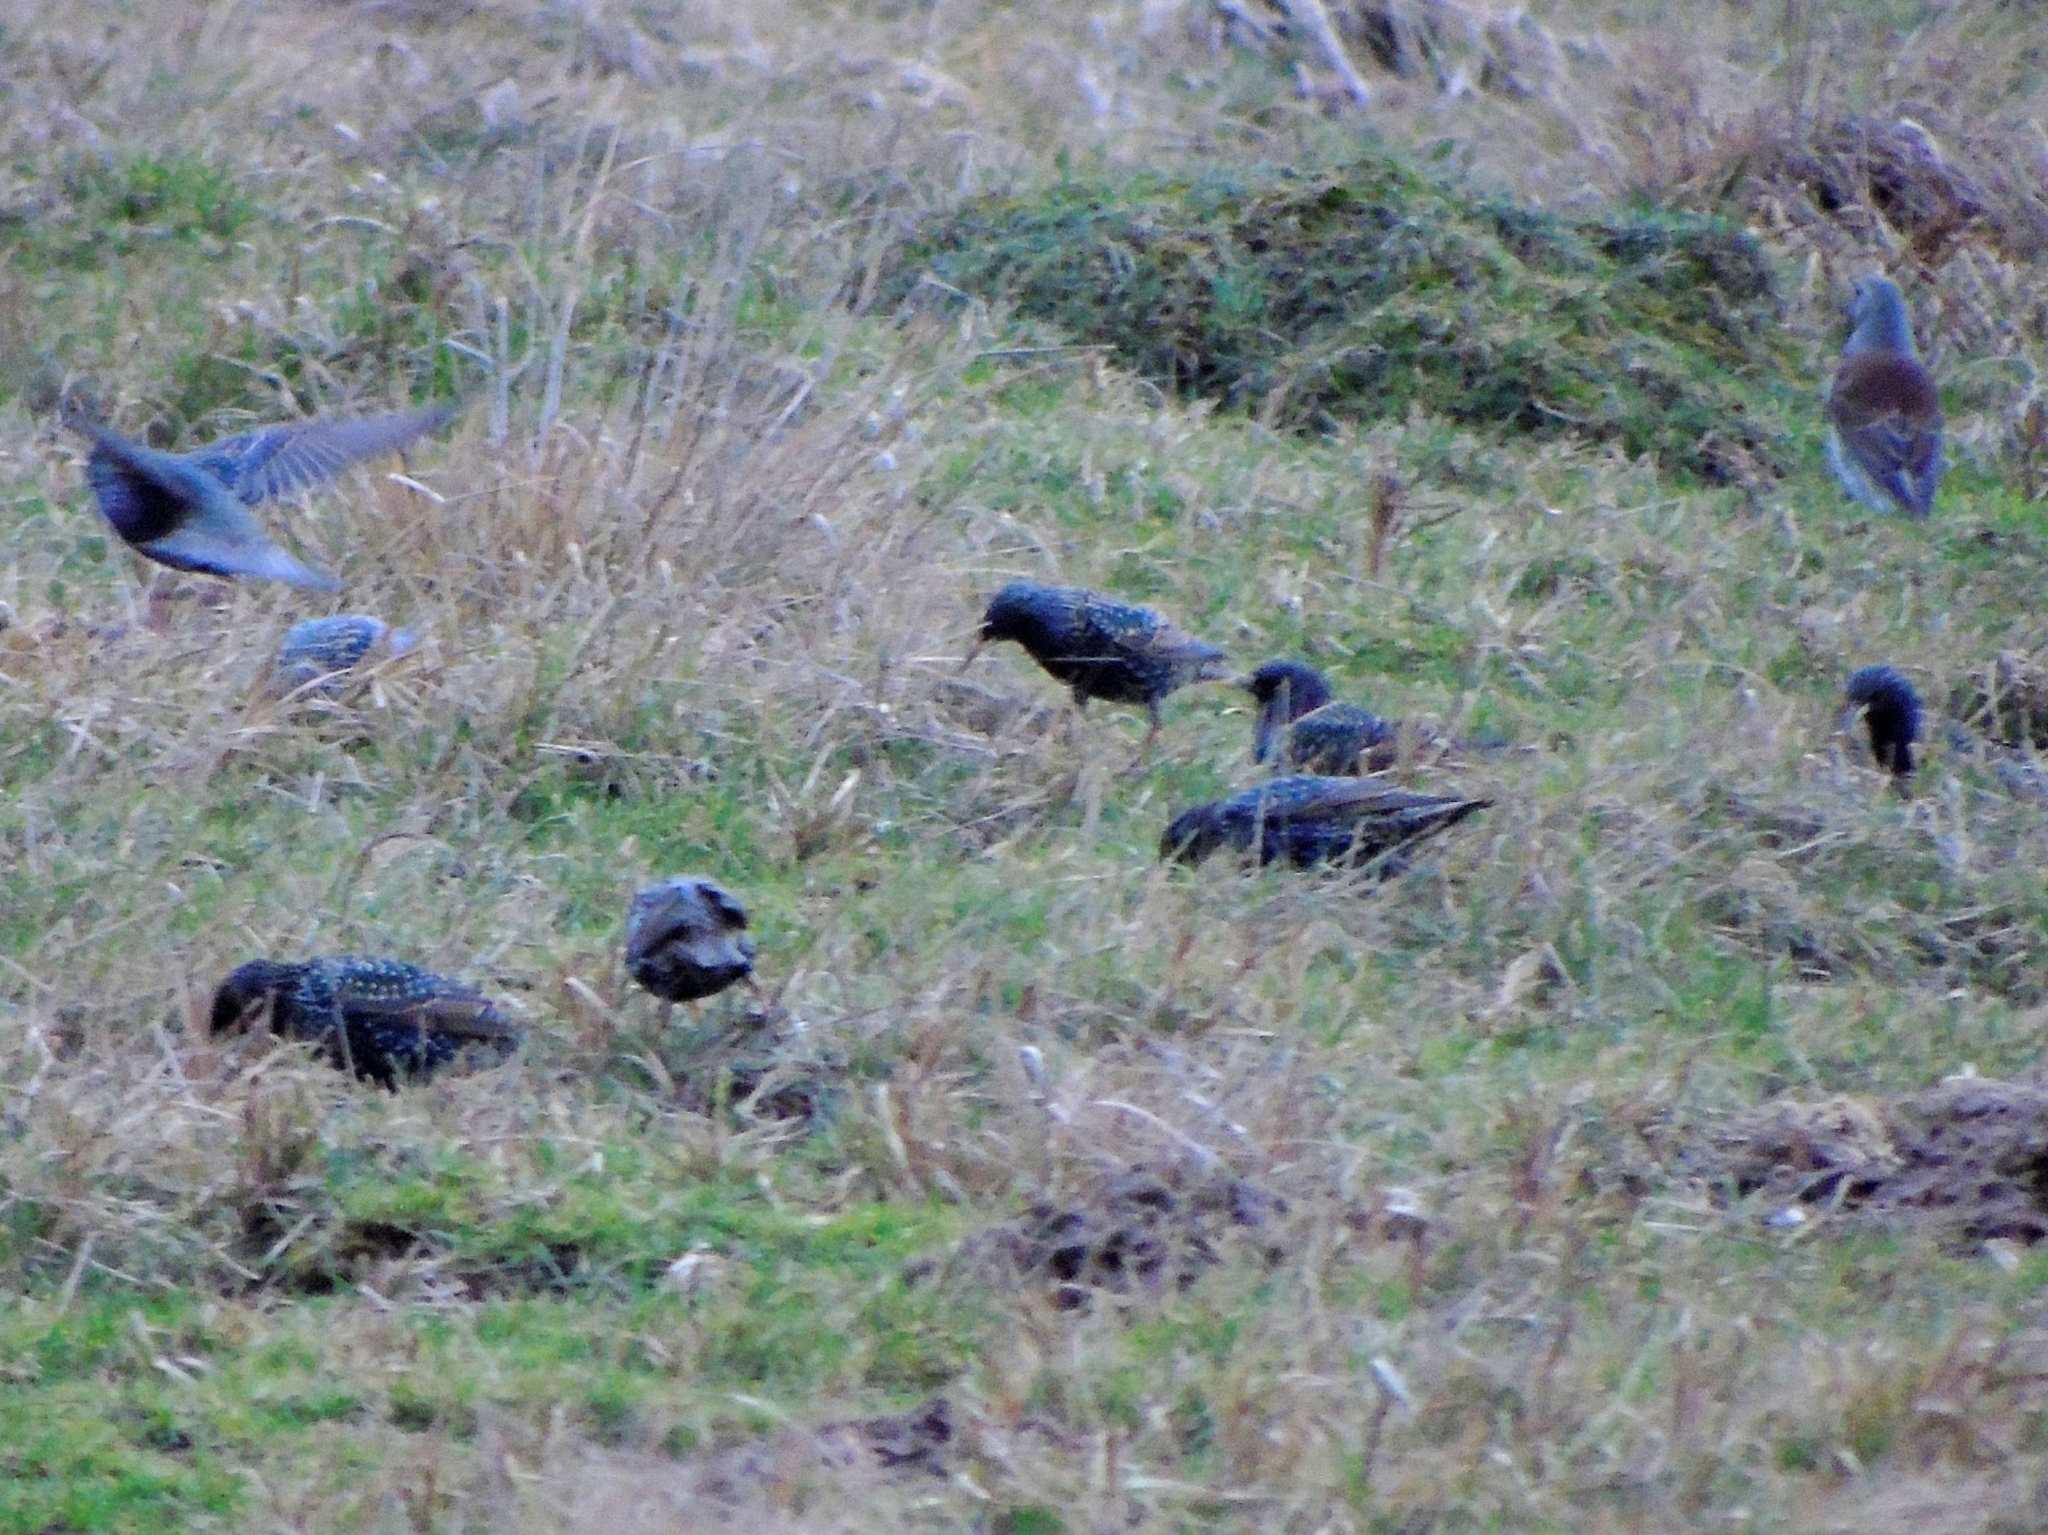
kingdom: Animalia
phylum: Chordata
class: Aves
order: Passeriformes
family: Sturnidae
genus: Sturnus
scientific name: Sturnus vulgaris
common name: Common starling
